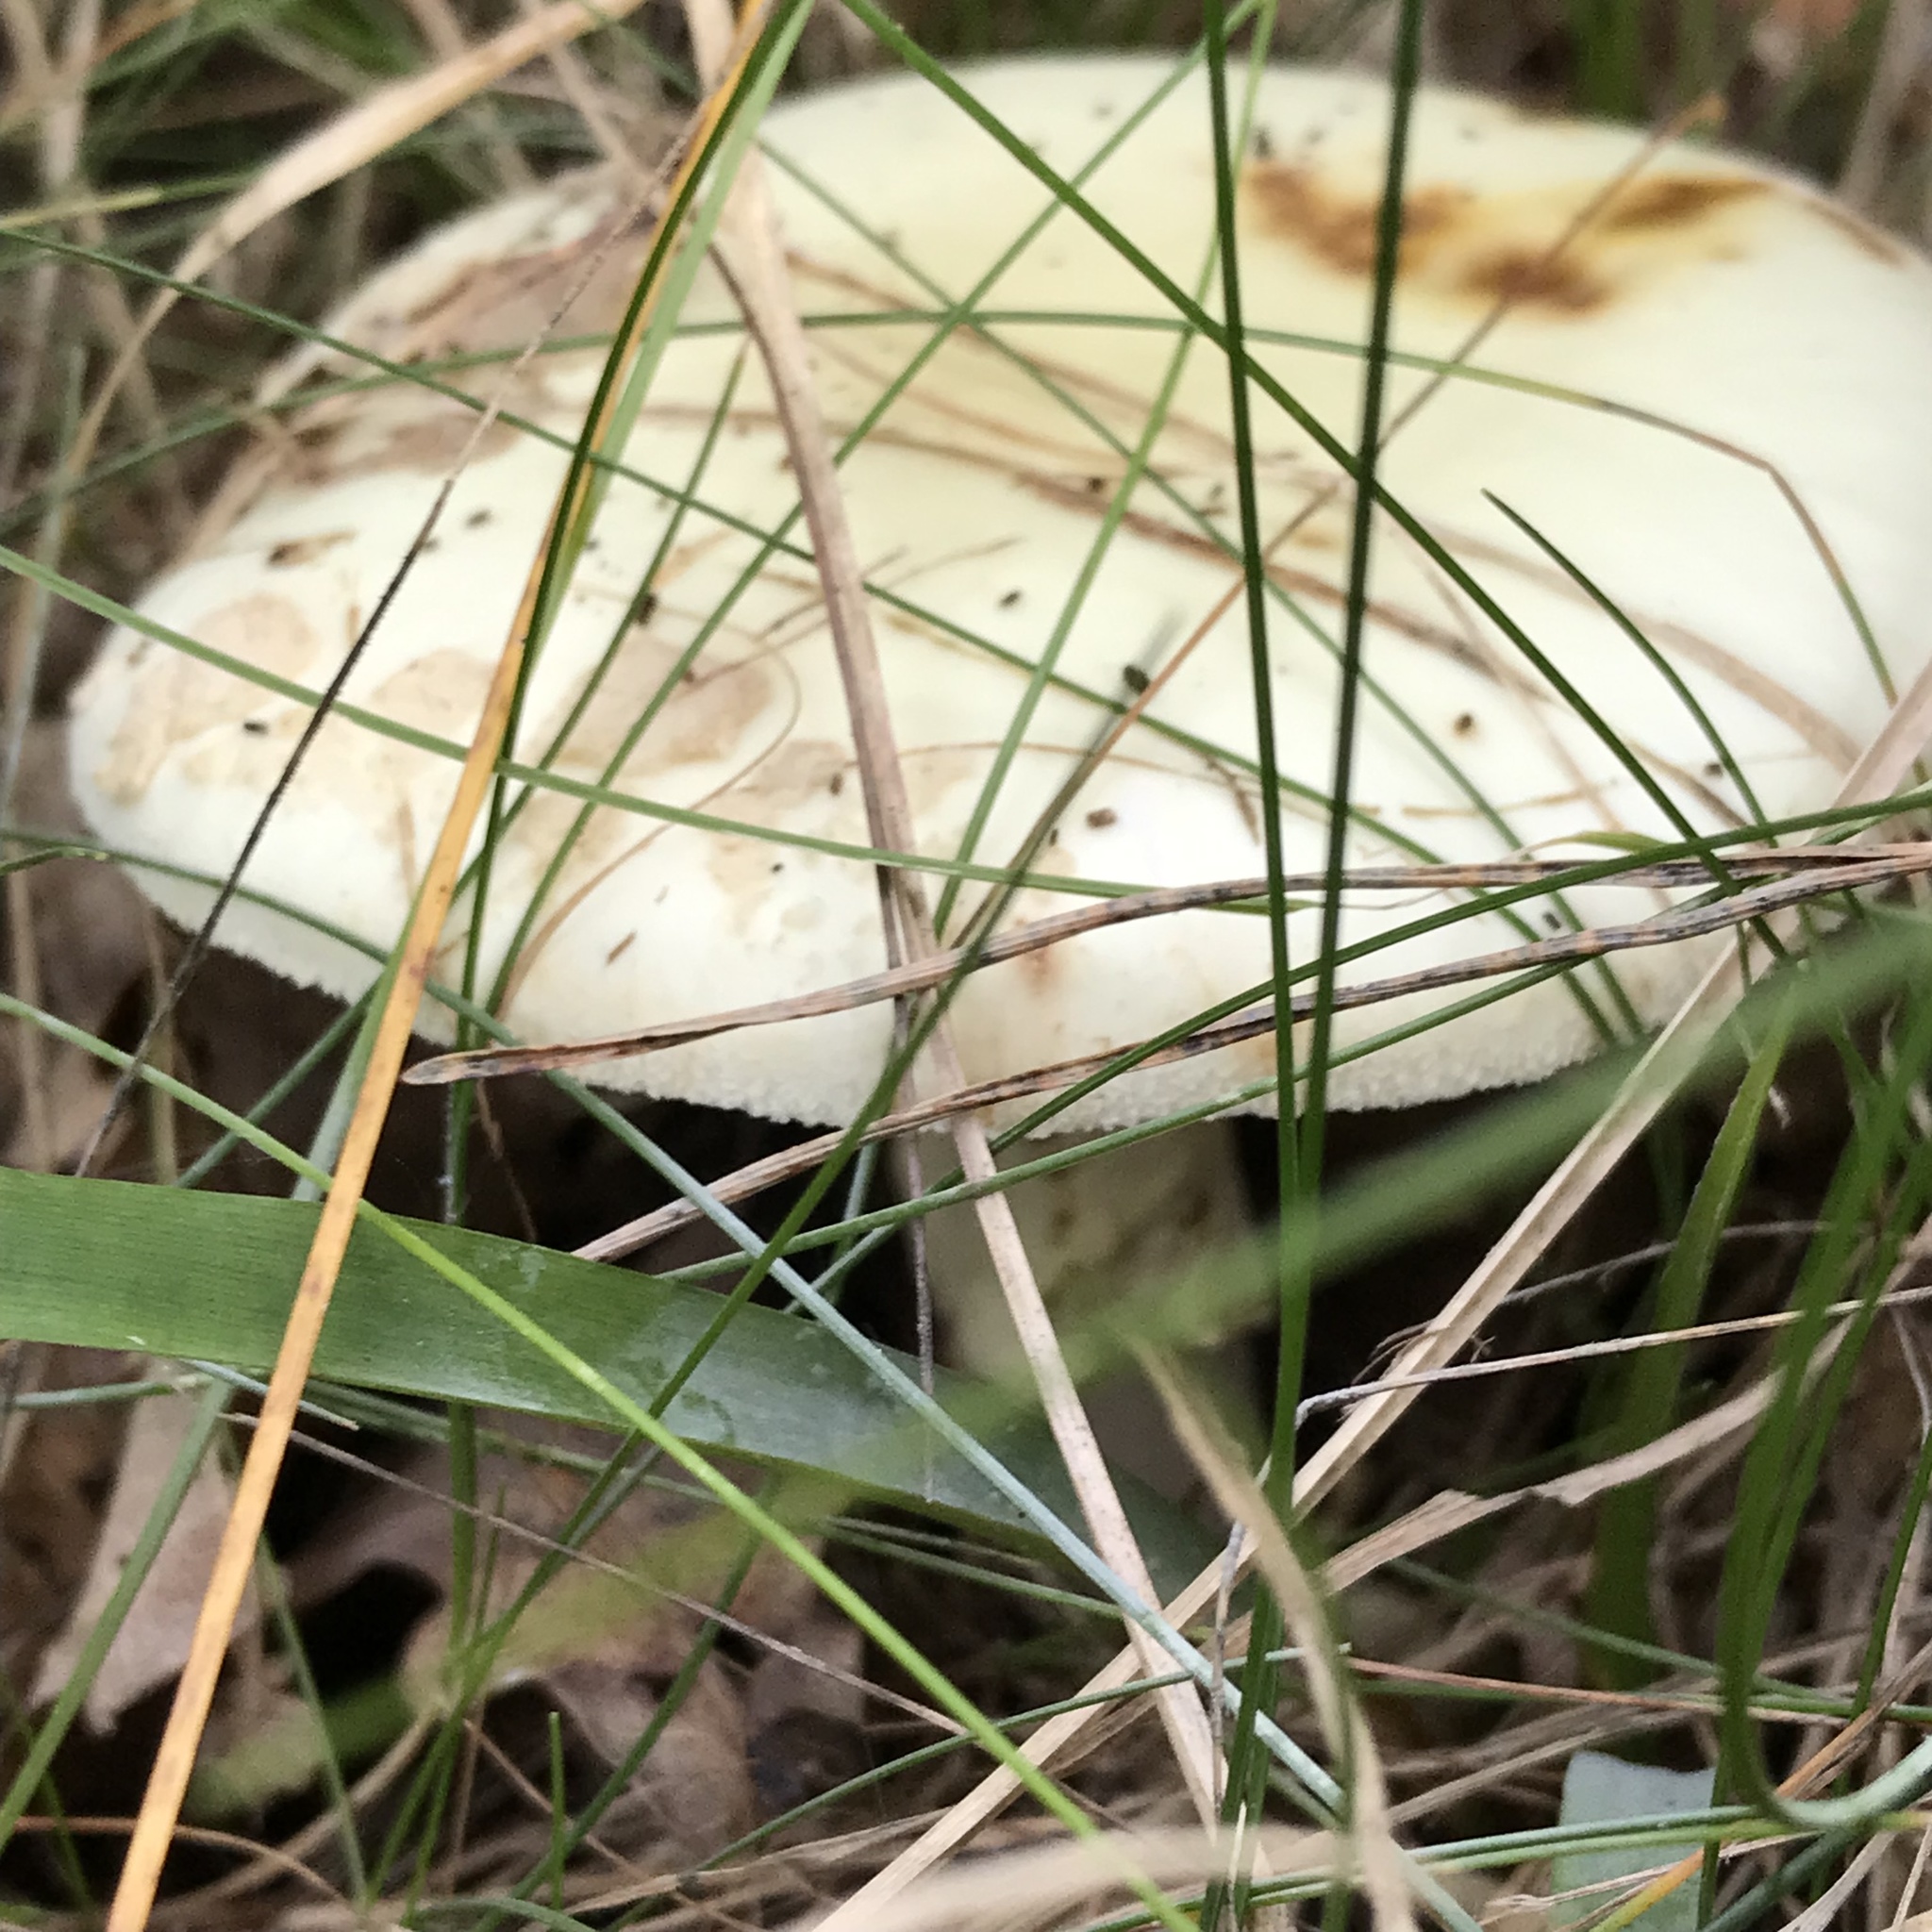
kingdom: Fungi
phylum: Basidiomycota
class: Agaricomycetes
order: Agaricales
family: Amanitaceae
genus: Amanita
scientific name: Amanita citrina
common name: False death-cap
